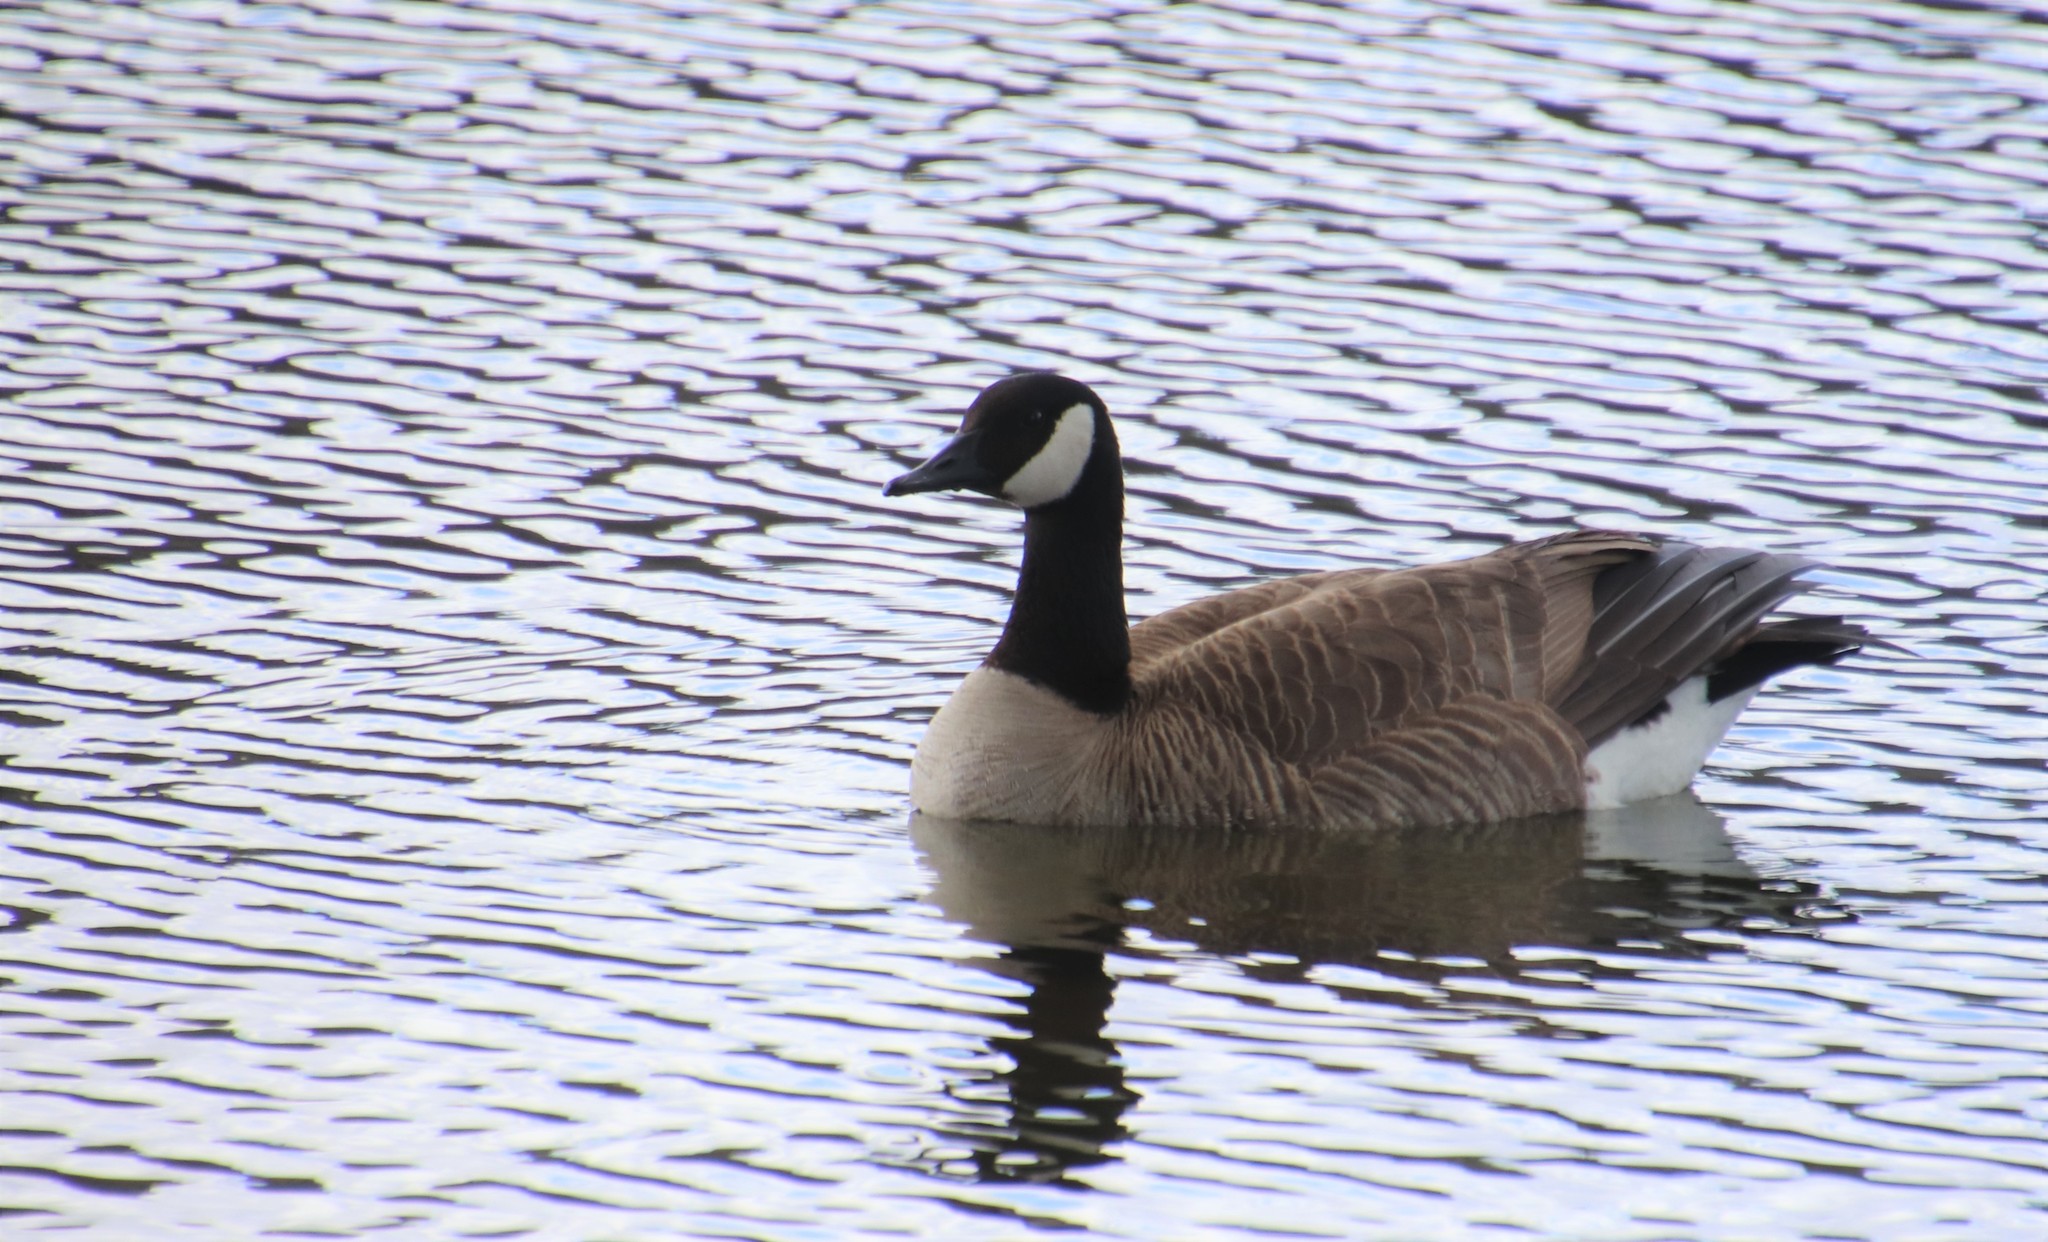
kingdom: Animalia
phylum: Chordata
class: Aves
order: Anseriformes
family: Anatidae
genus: Branta
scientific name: Branta canadensis
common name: Canada goose
